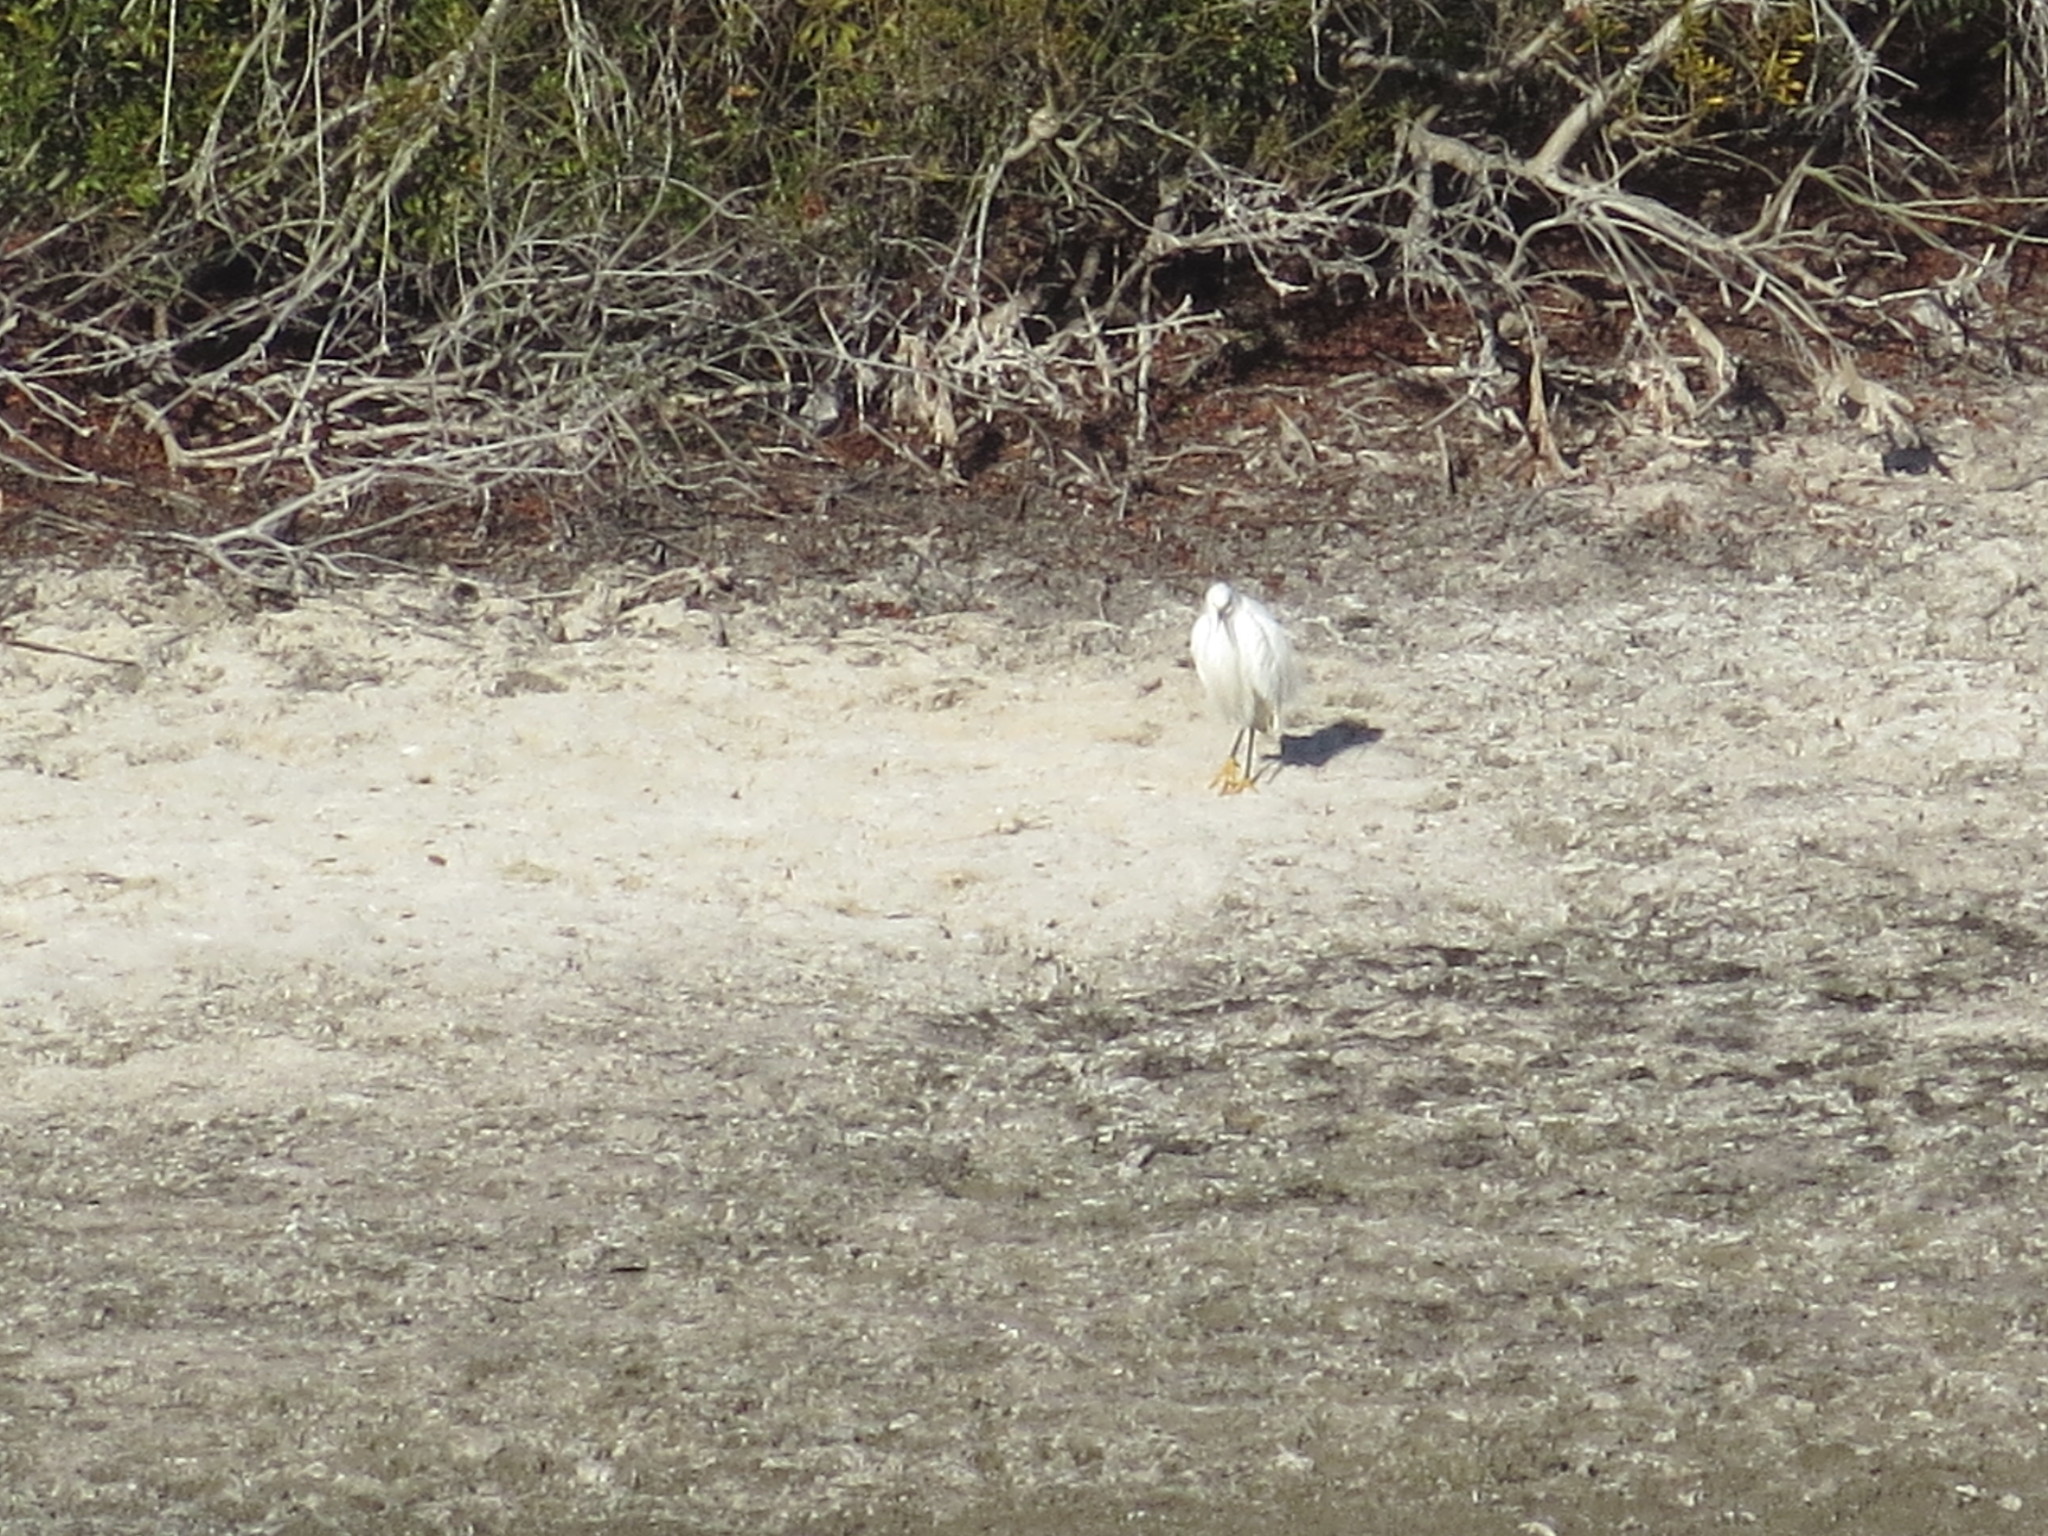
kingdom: Animalia
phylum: Chordata
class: Aves
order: Pelecaniformes
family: Ardeidae
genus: Egretta
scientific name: Egretta thula
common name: Snowy egret
